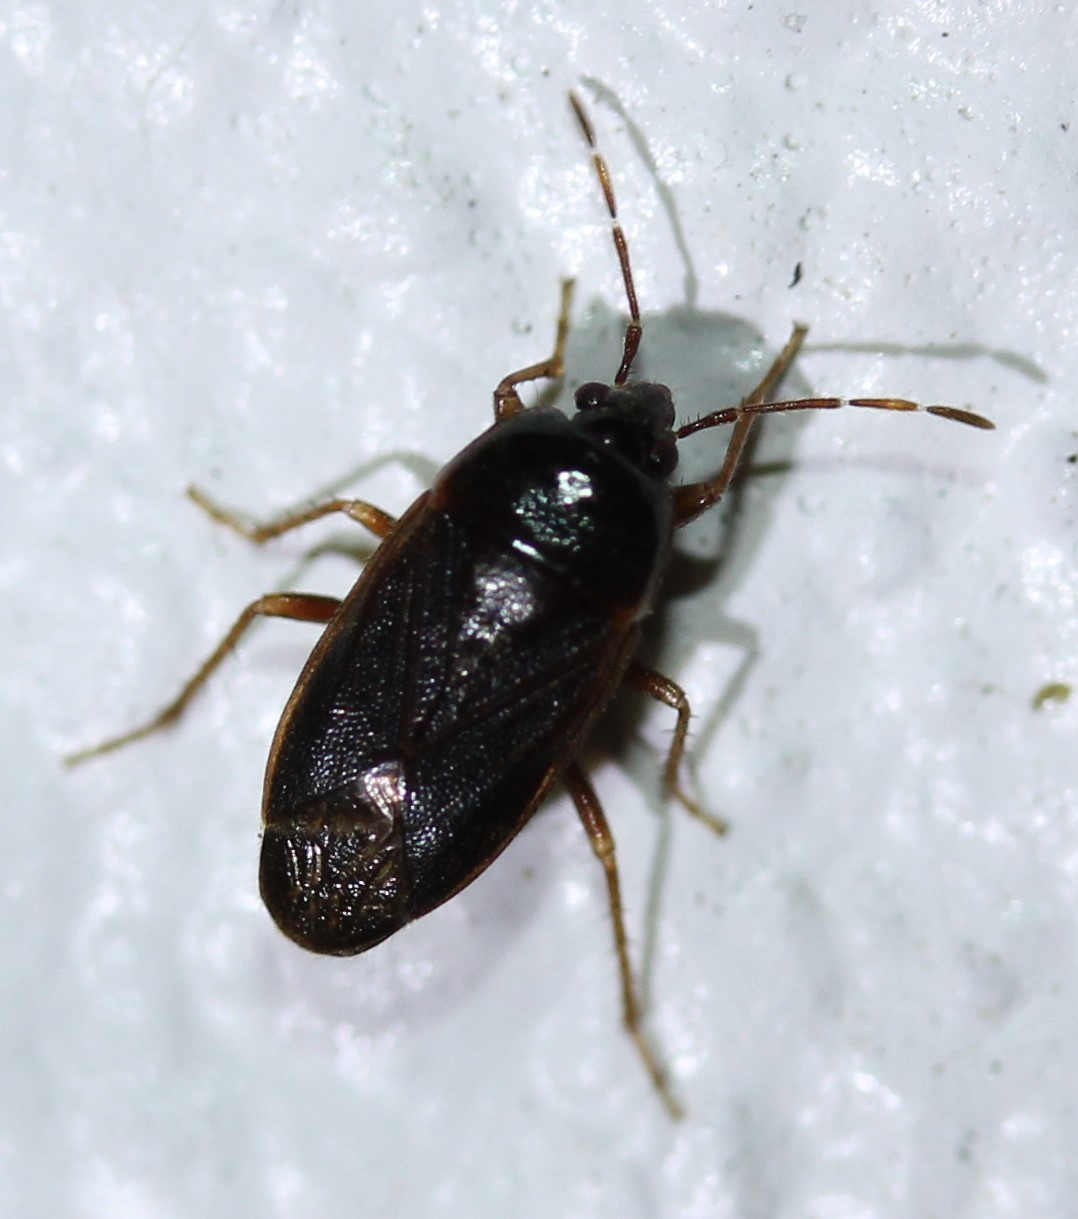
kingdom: Animalia
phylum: Arthropoda
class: Insecta
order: Hemiptera
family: Rhyparochromidae
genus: Paragonatas
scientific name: Paragonatas costaricensis
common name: Seed bug
